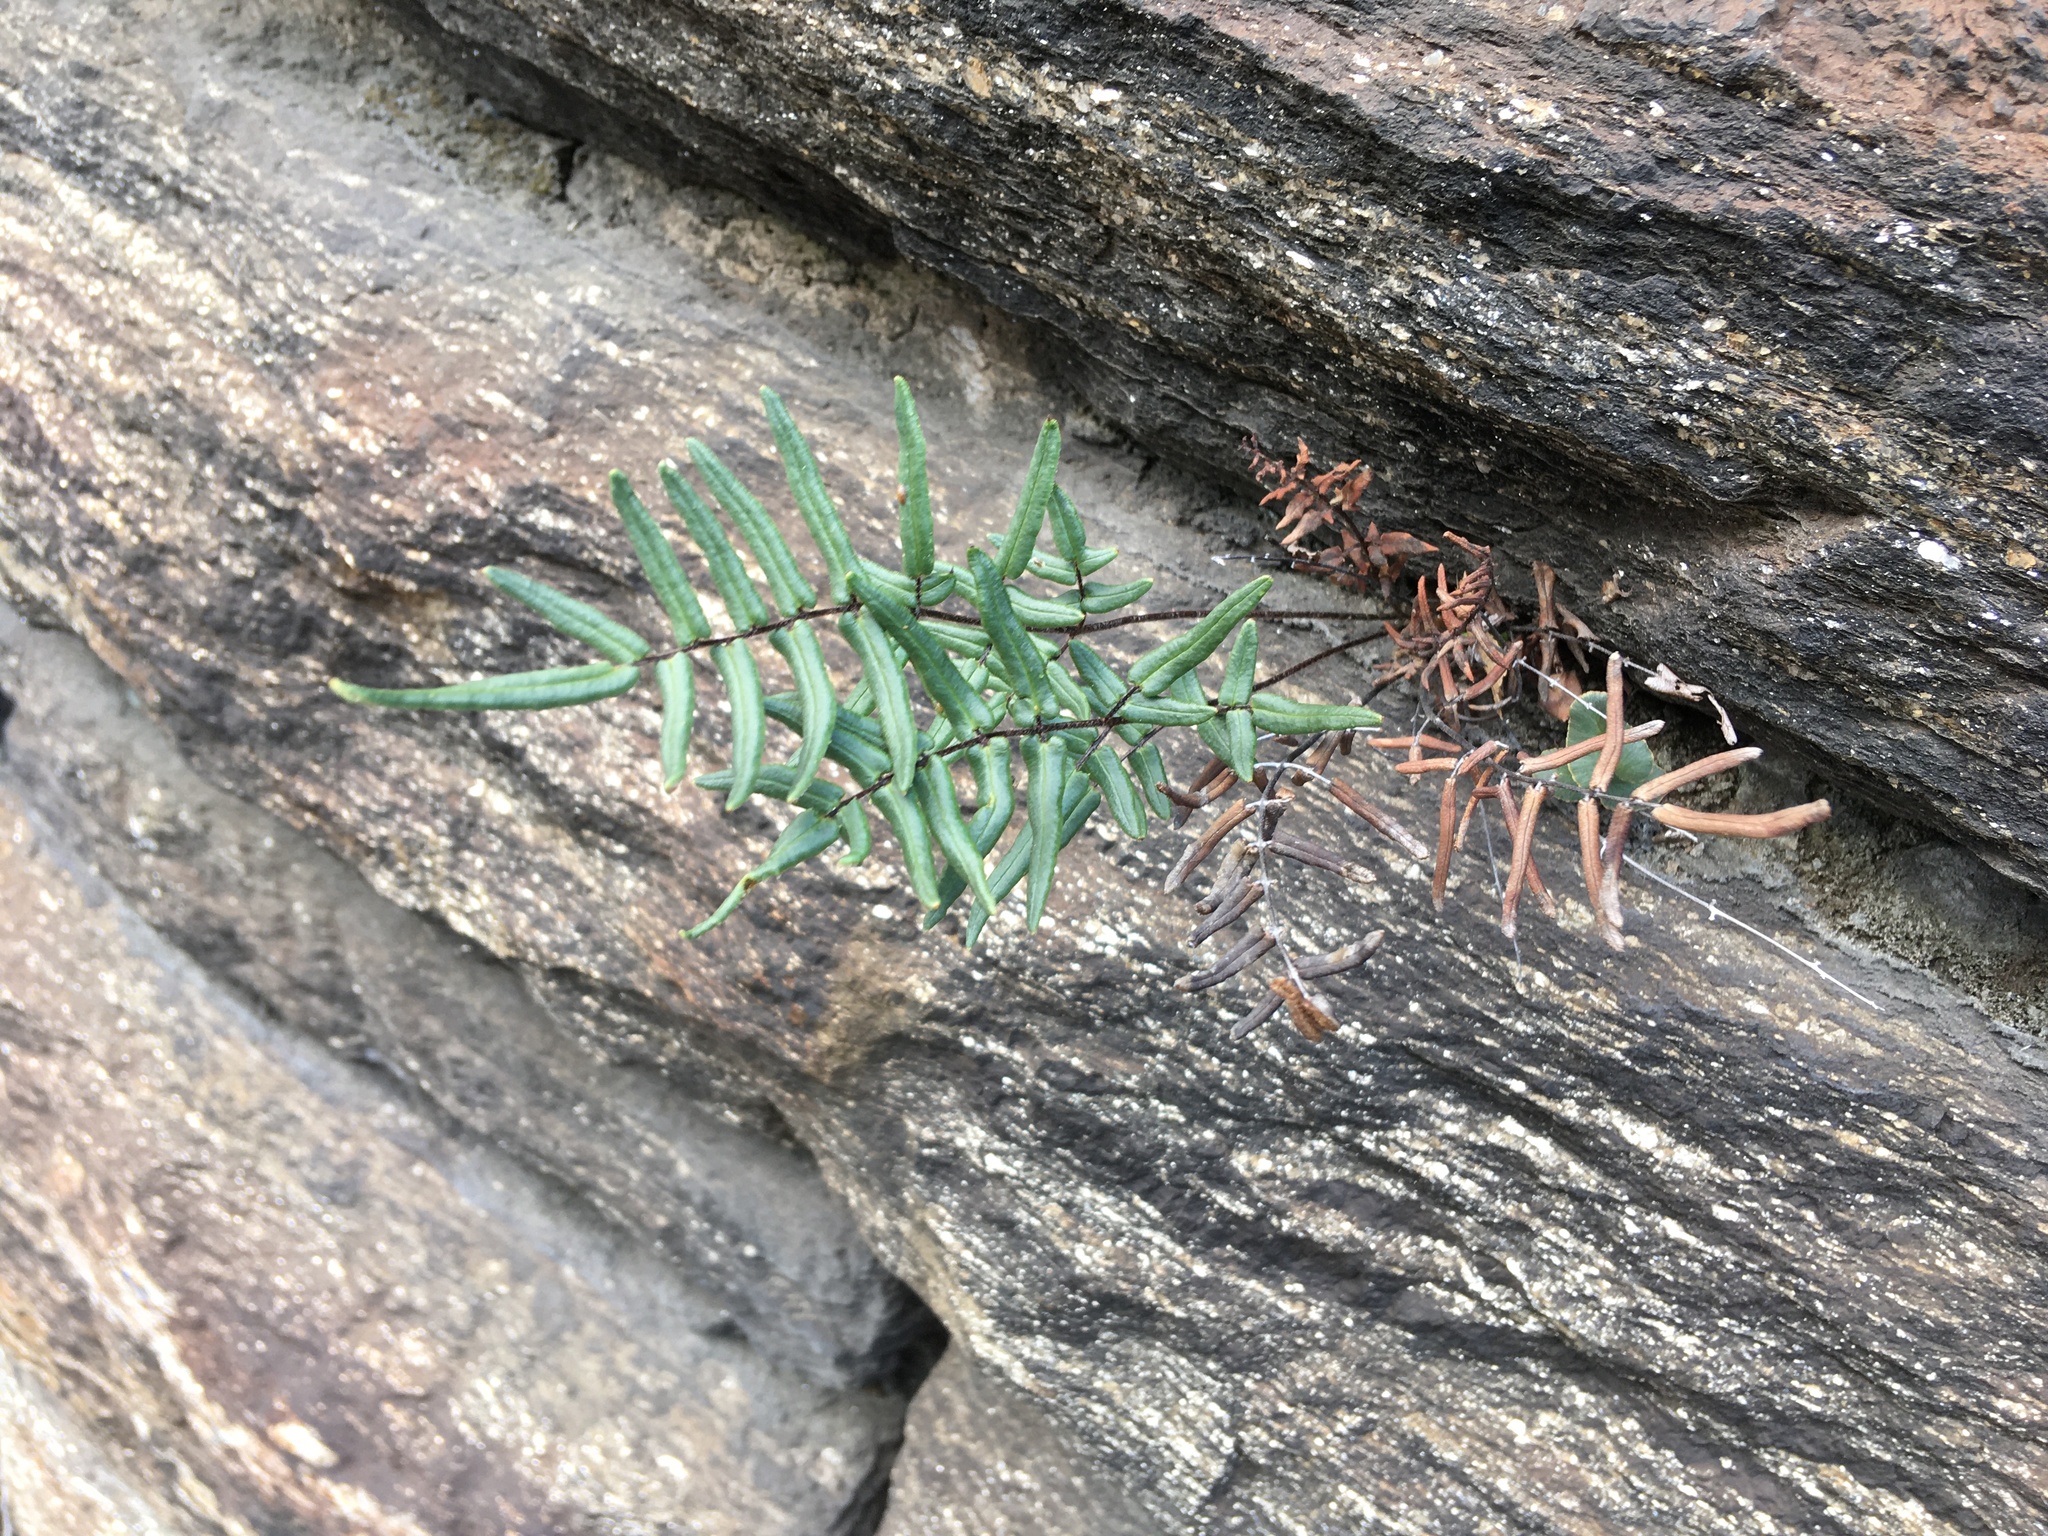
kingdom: Plantae
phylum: Tracheophyta
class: Polypodiopsida
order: Polypodiales
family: Pteridaceae
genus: Pellaea
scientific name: Pellaea atropurpurea
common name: Hairy cliffbrake
